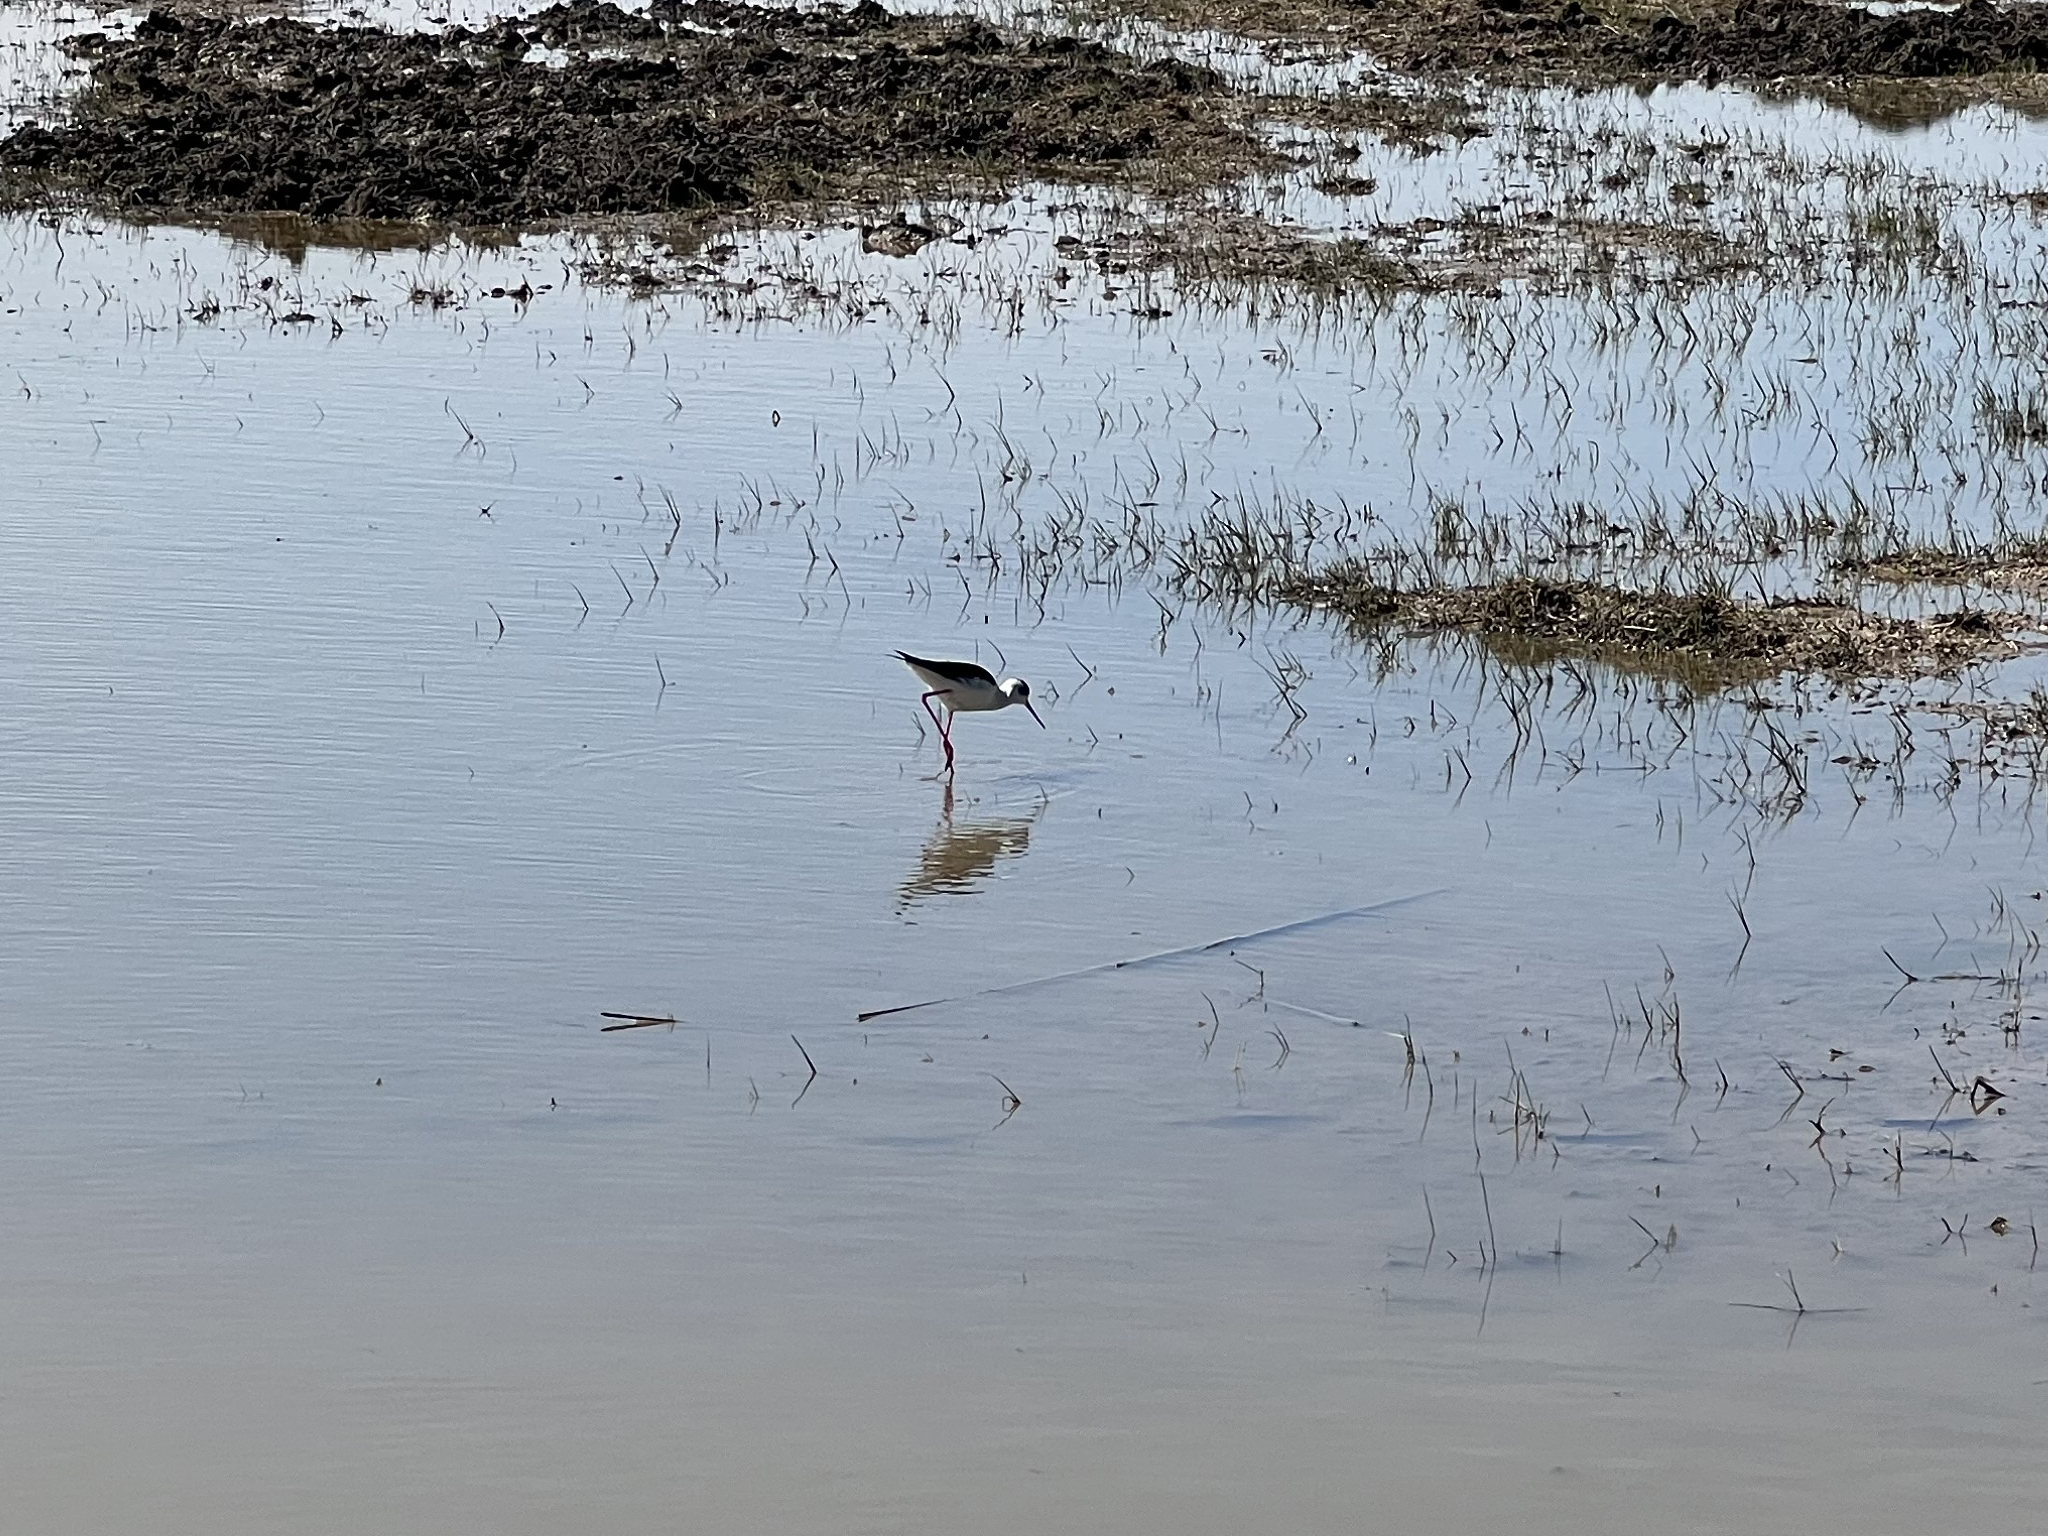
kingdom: Animalia
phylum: Chordata
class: Aves
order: Charadriiformes
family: Recurvirostridae
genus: Himantopus
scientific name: Himantopus himantopus
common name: Black-winged stilt
